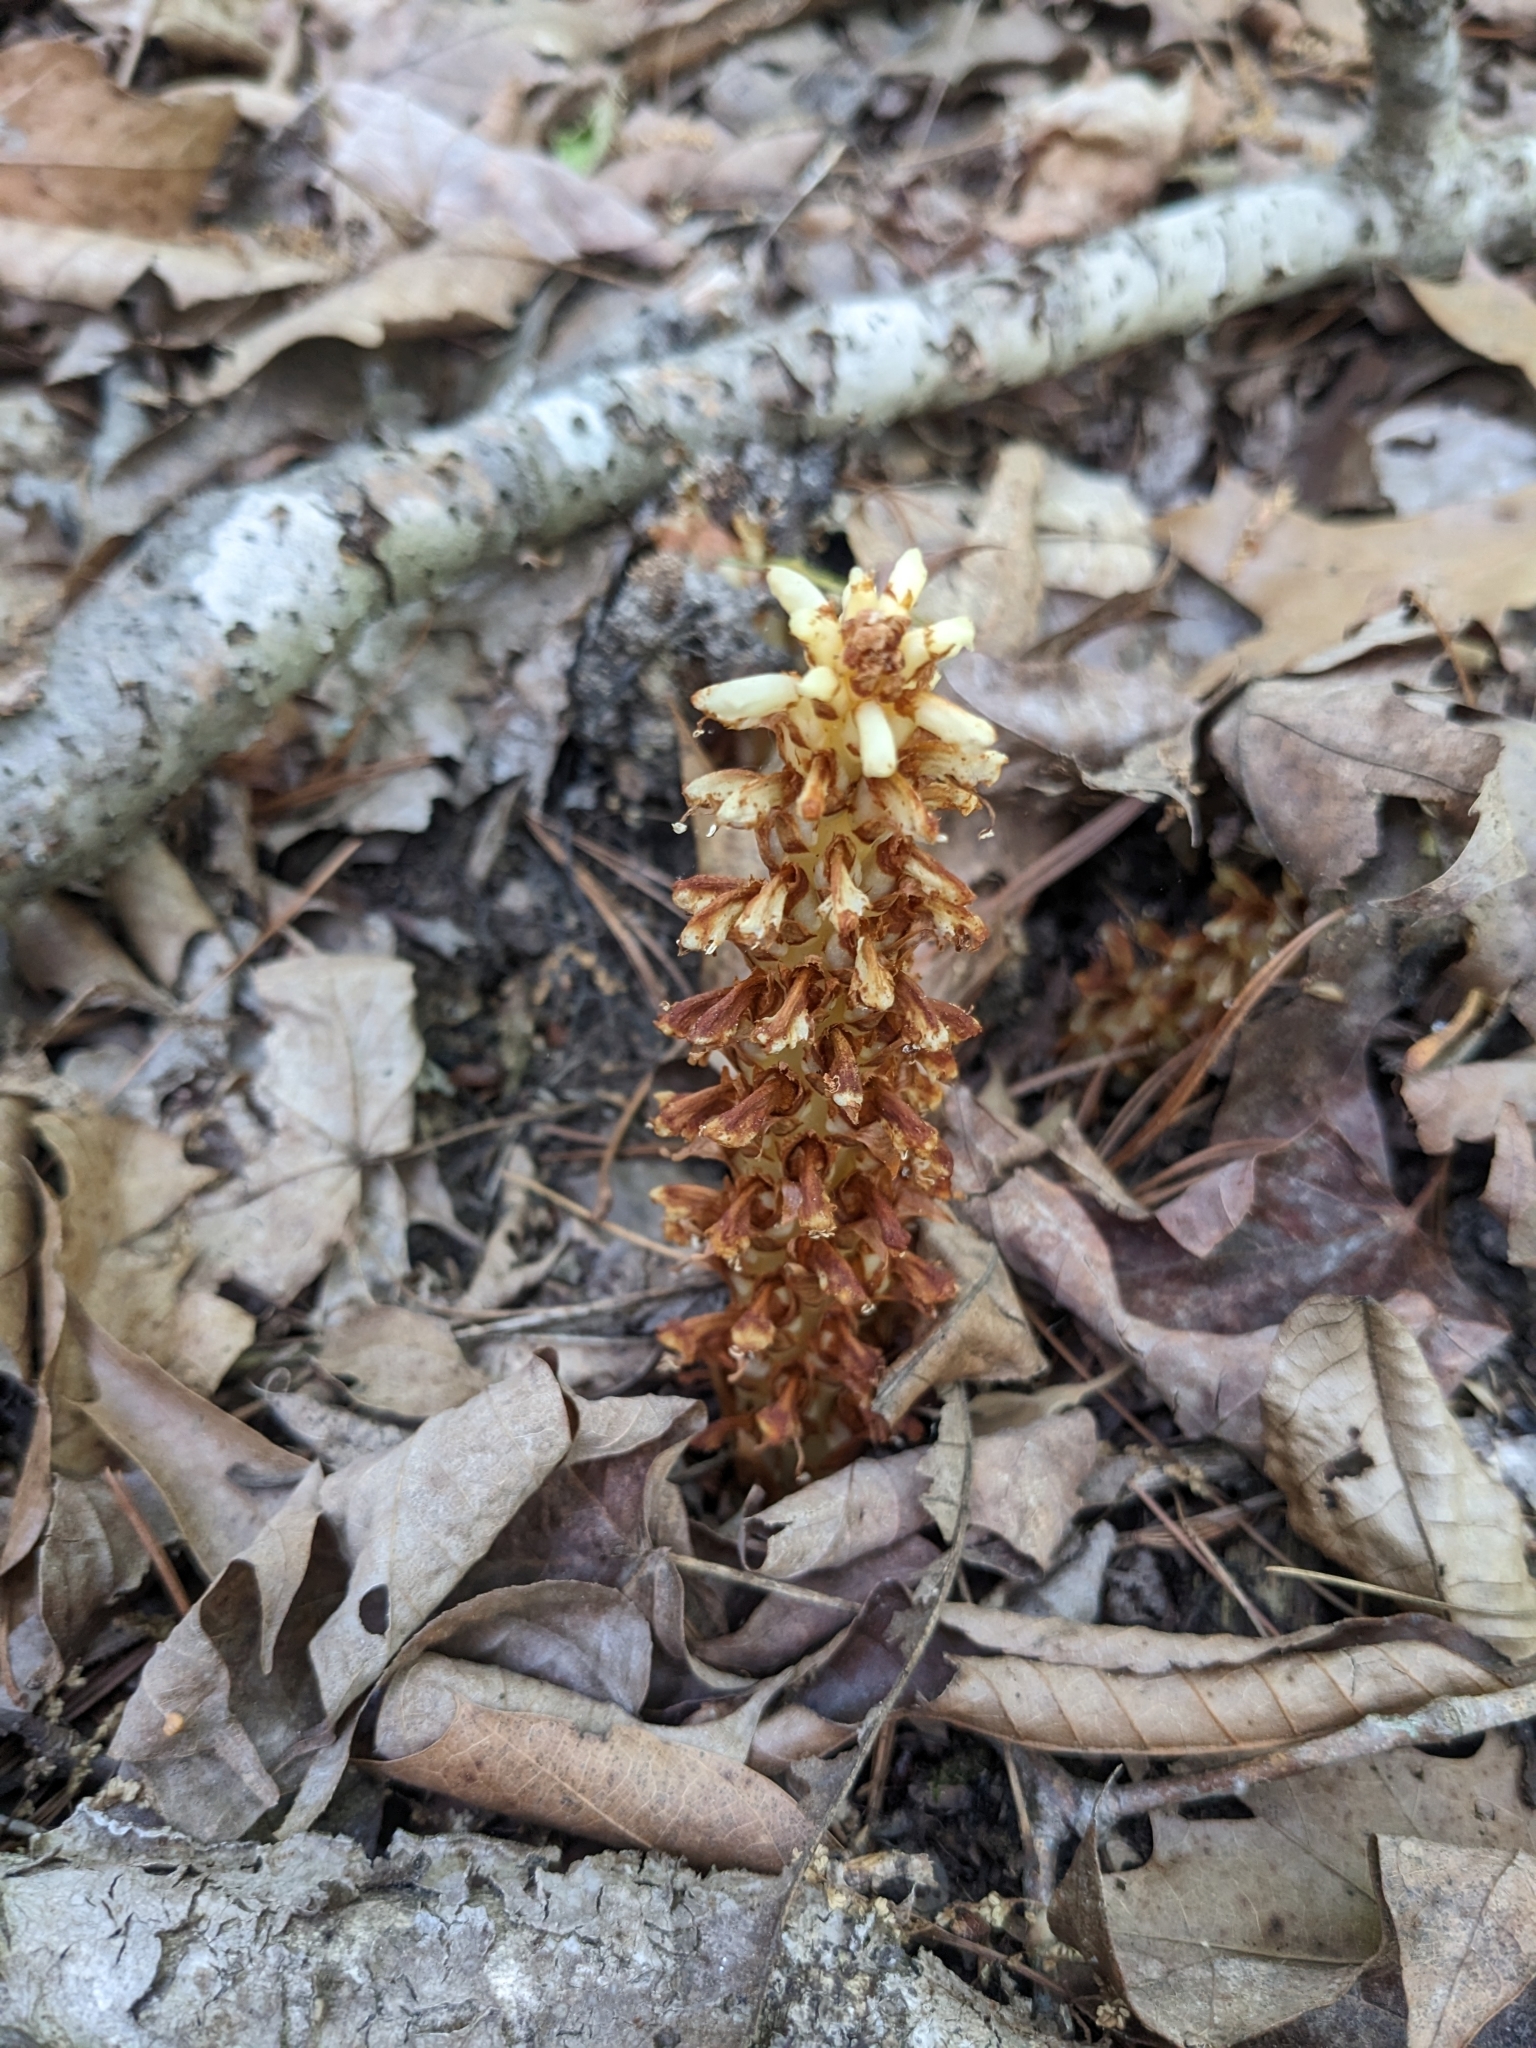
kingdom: Plantae
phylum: Tracheophyta
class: Magnoliopsida
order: Lamiales
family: Orobanchaceae
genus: Conopholis
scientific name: Conopholis americana
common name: American cancer-root
